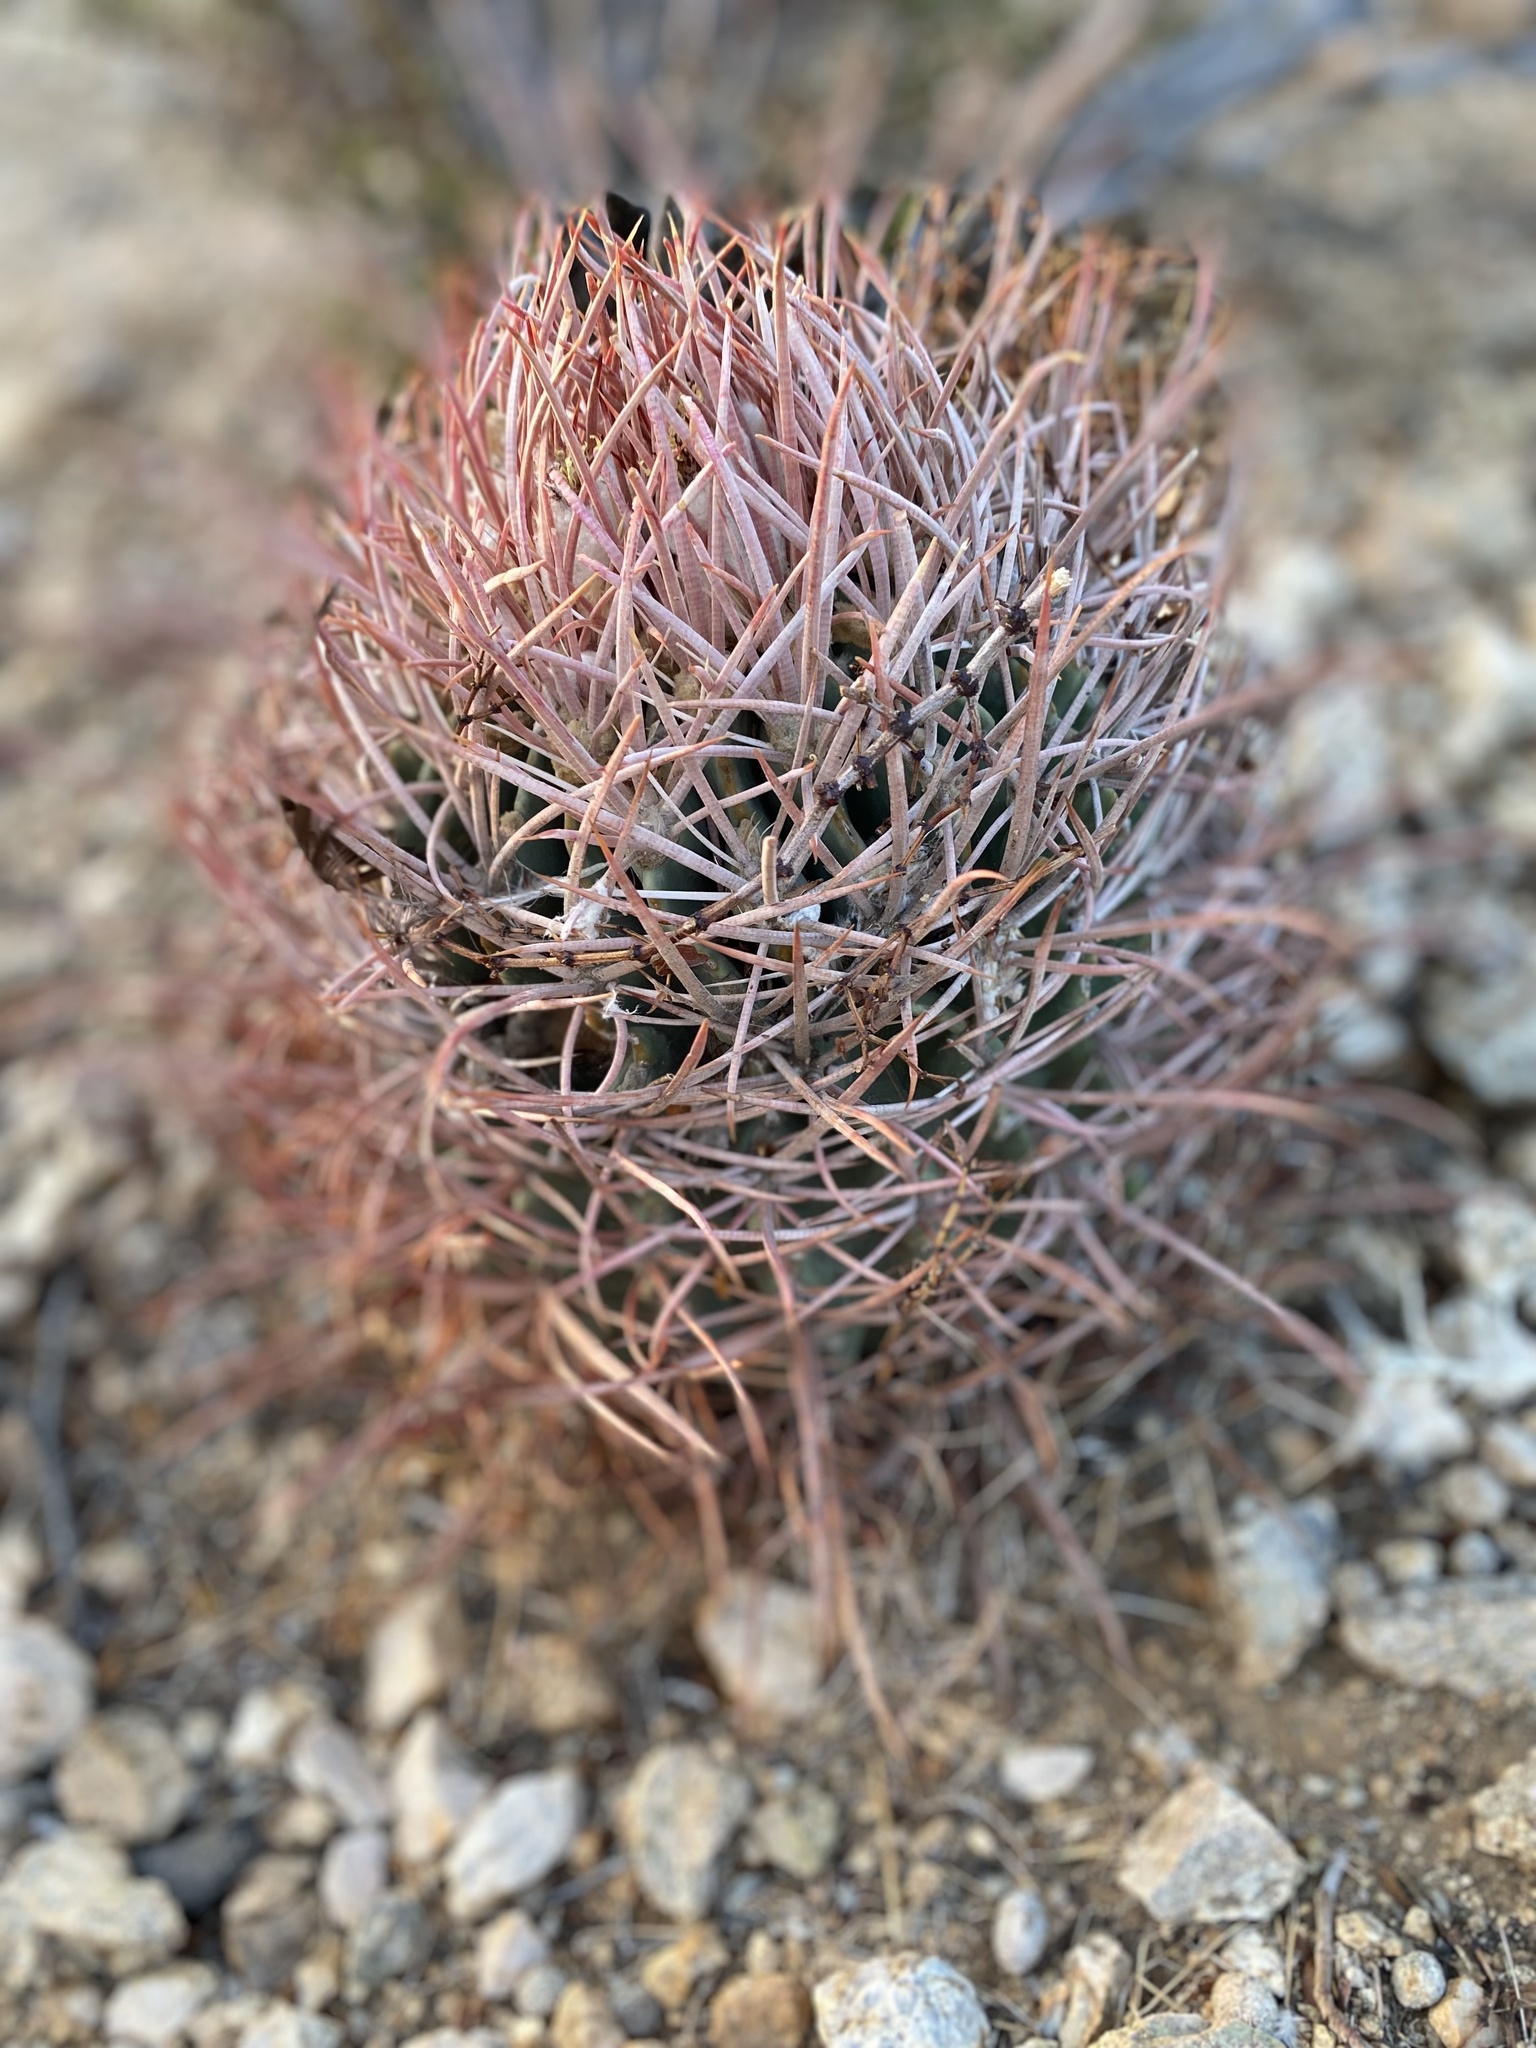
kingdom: Plantae
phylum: Tracheophyta
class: Magnoliopsida
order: Caryophyllales
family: Cactaceae
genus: Echinocactus
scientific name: Echinocactus polycephalus
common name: Cottontop cactus
